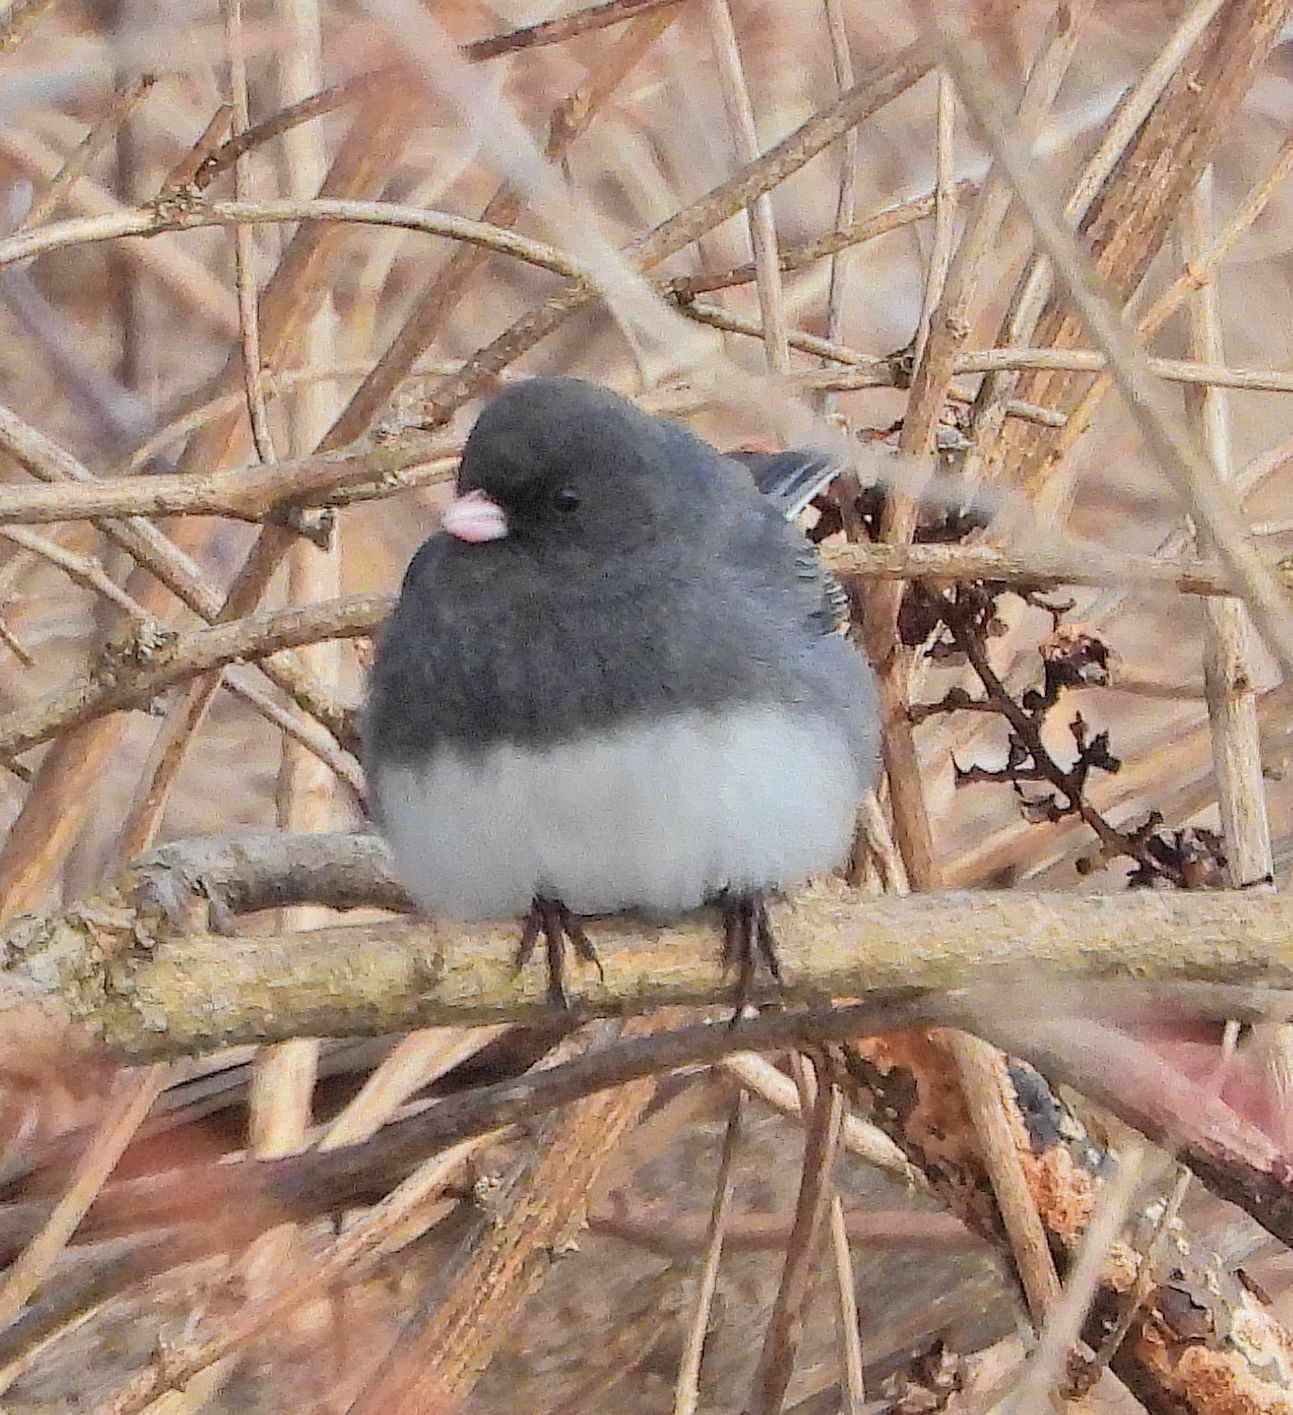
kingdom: Animalia
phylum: Chordata
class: Aves
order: Passeriformes
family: Passerellidae
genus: Junco
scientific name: Junco hyemalis
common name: Dark-eyed junco
